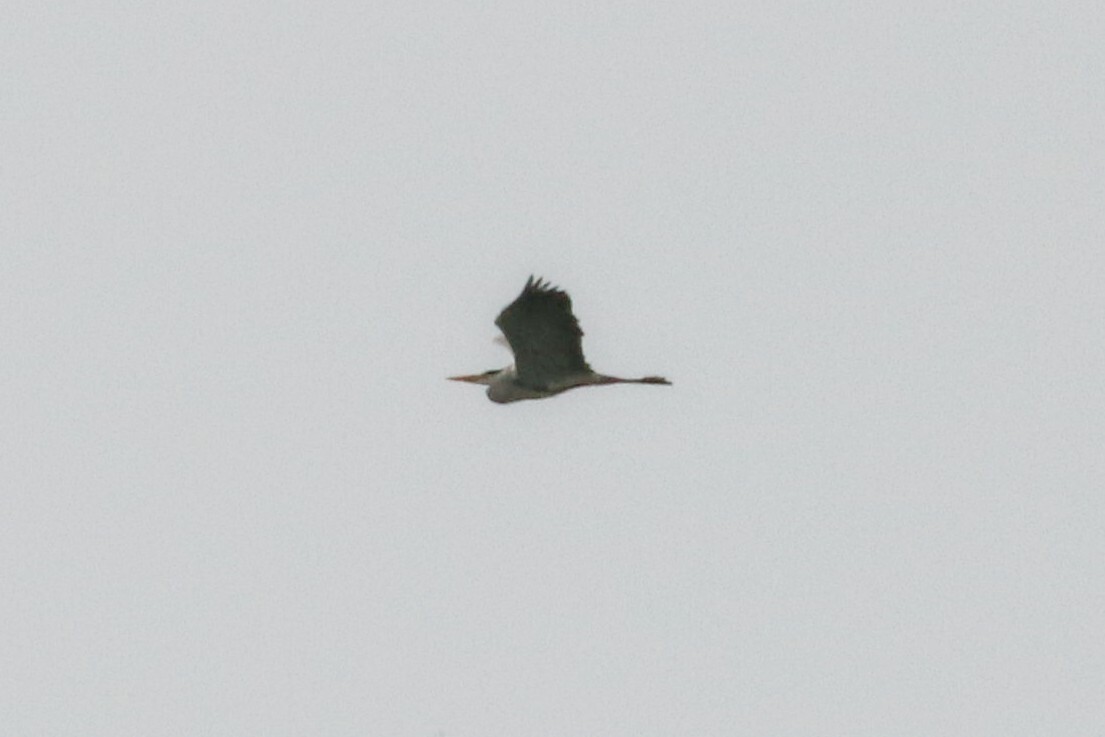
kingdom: Animalia
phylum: Chordata
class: Aves
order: Pelecaniformes
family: Ardeidae
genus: Ardea
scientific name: Ardea cinerea
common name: Grey heron
